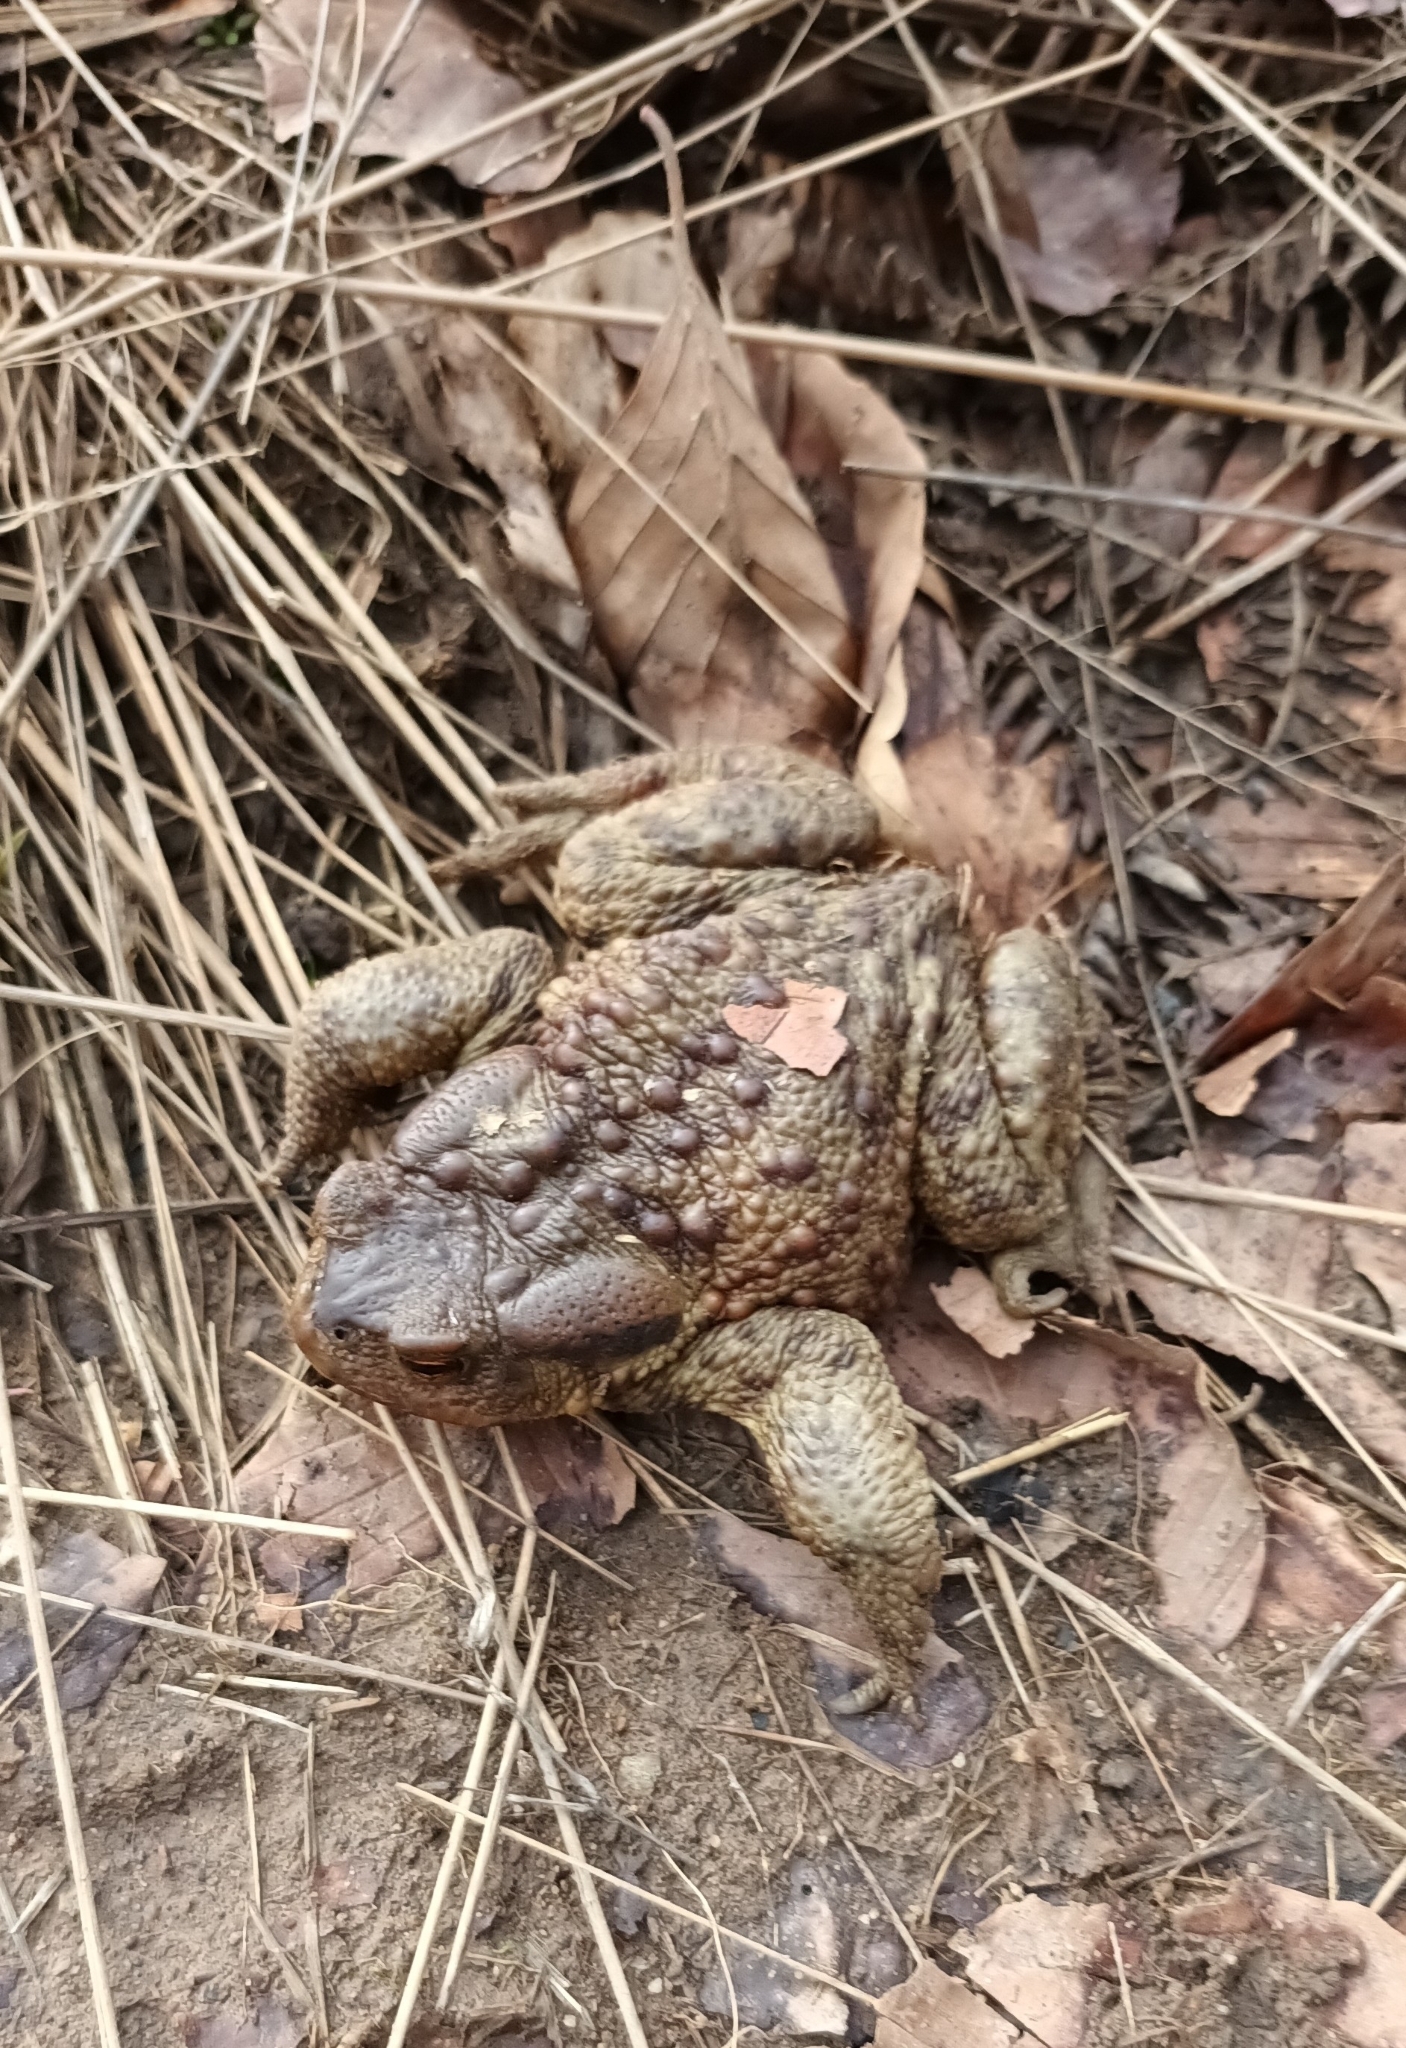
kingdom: Animalia
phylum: Chordata
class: Amphibia
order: Anura
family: Bufonidae
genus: Bufo
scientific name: Bufo bufo
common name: Common toad
